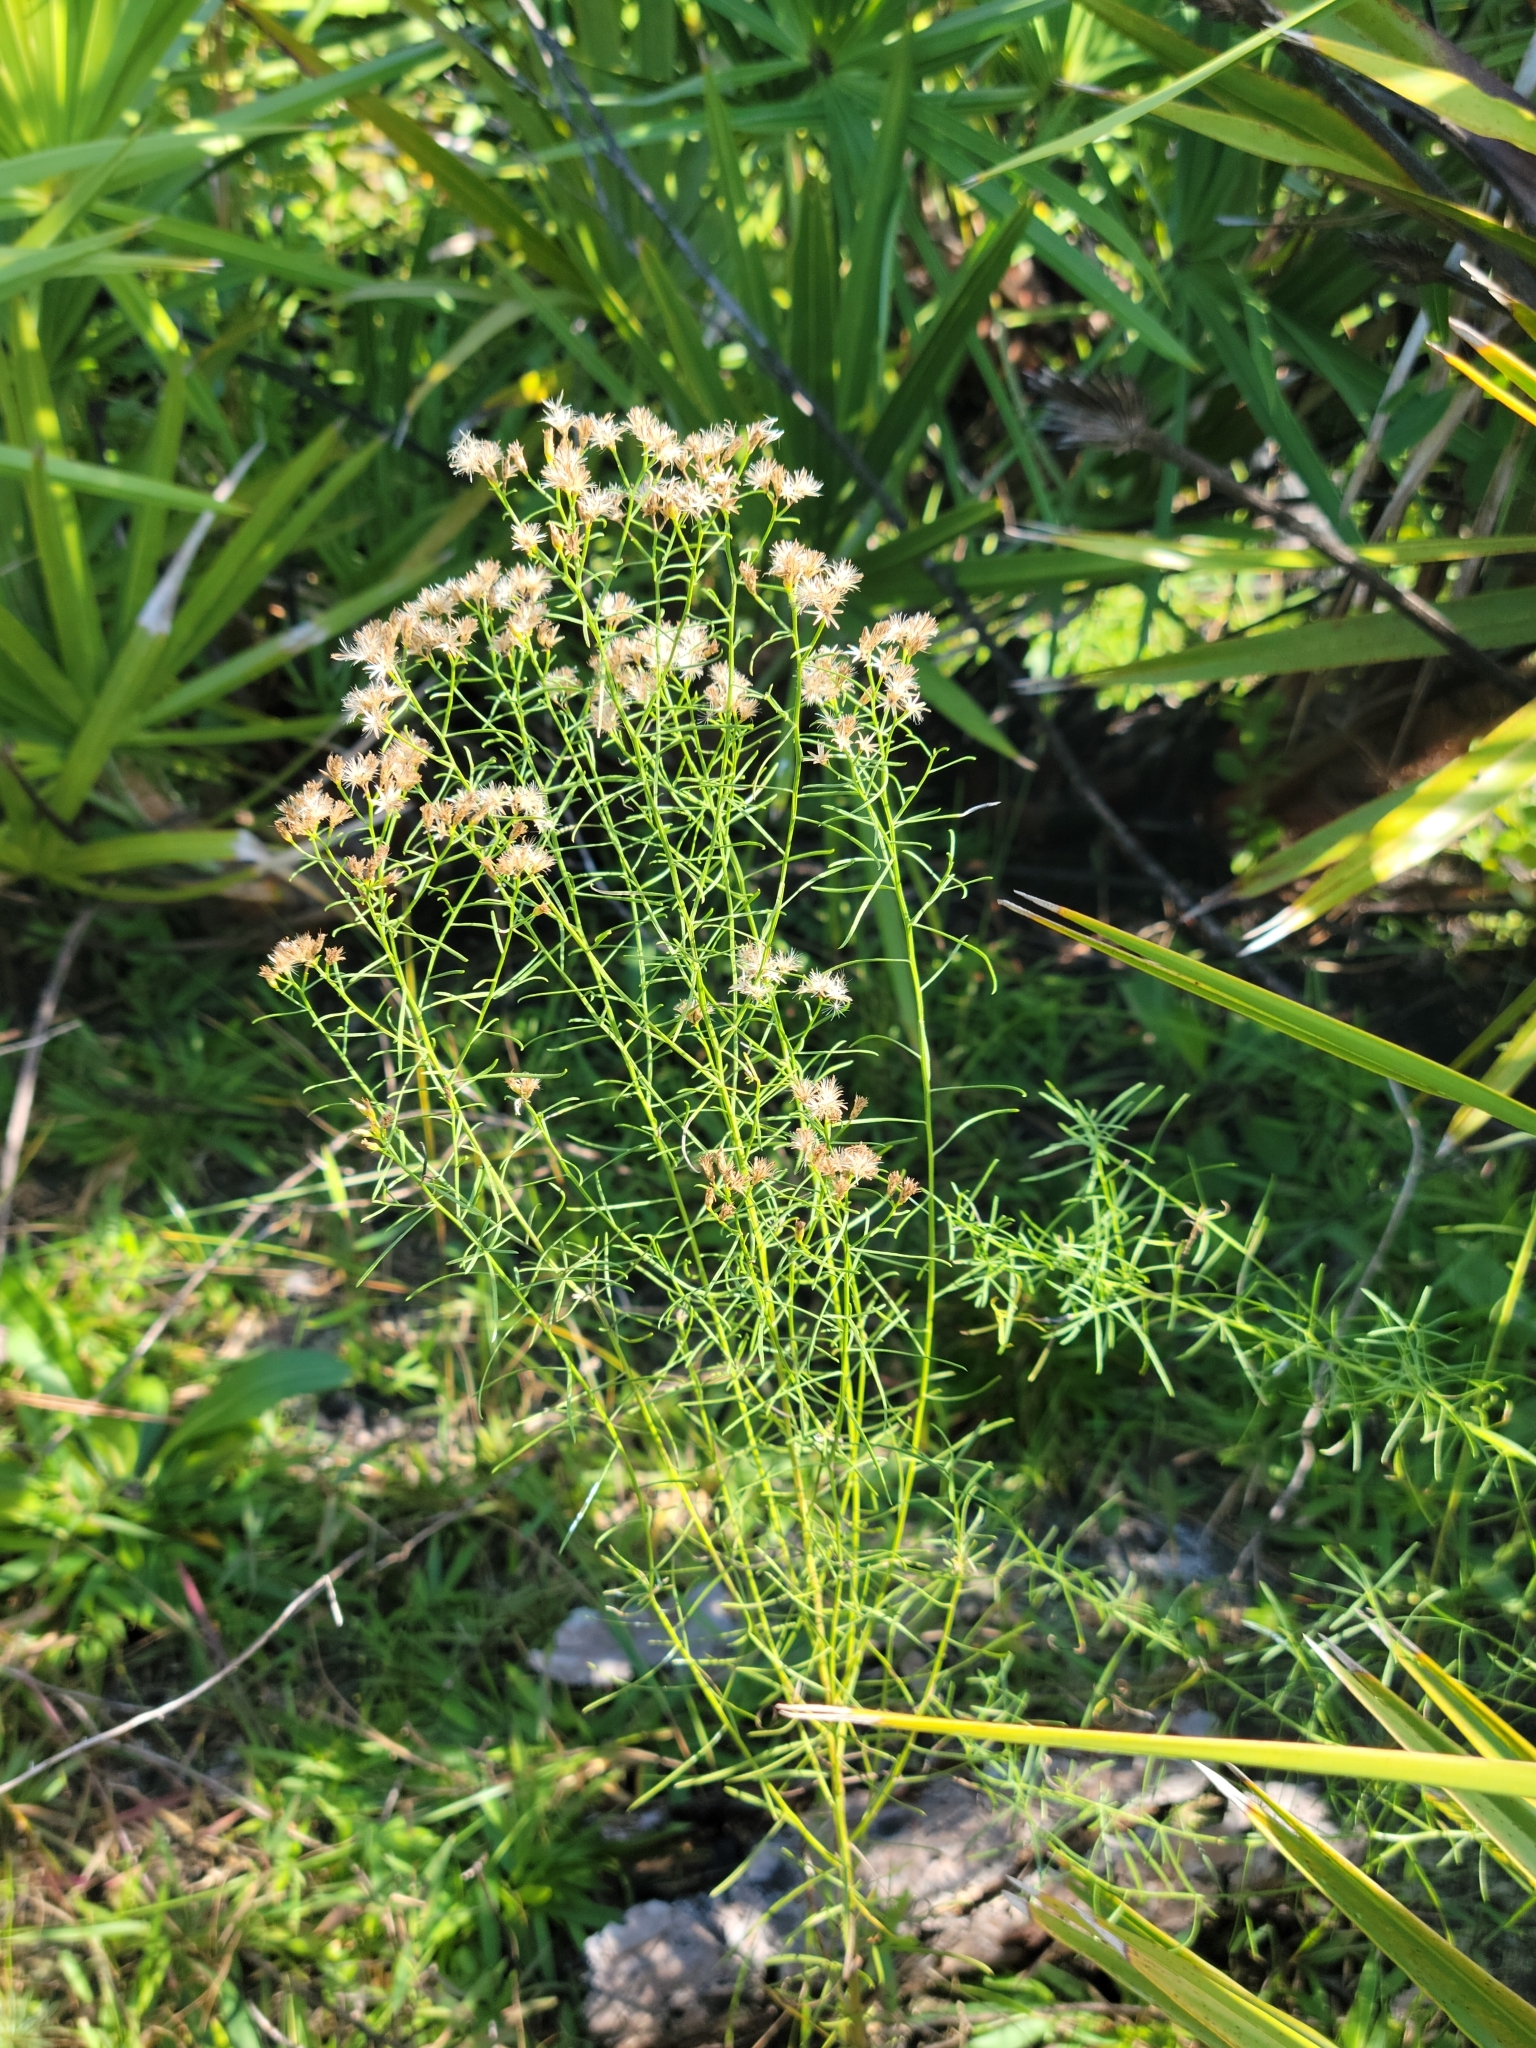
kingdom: Plantae
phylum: Tracheophyta
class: Magnoliopsida
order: Asterales
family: Asteraceae
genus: Euthamia
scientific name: Euthamia caroliniana
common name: Coastal plain goldentop
